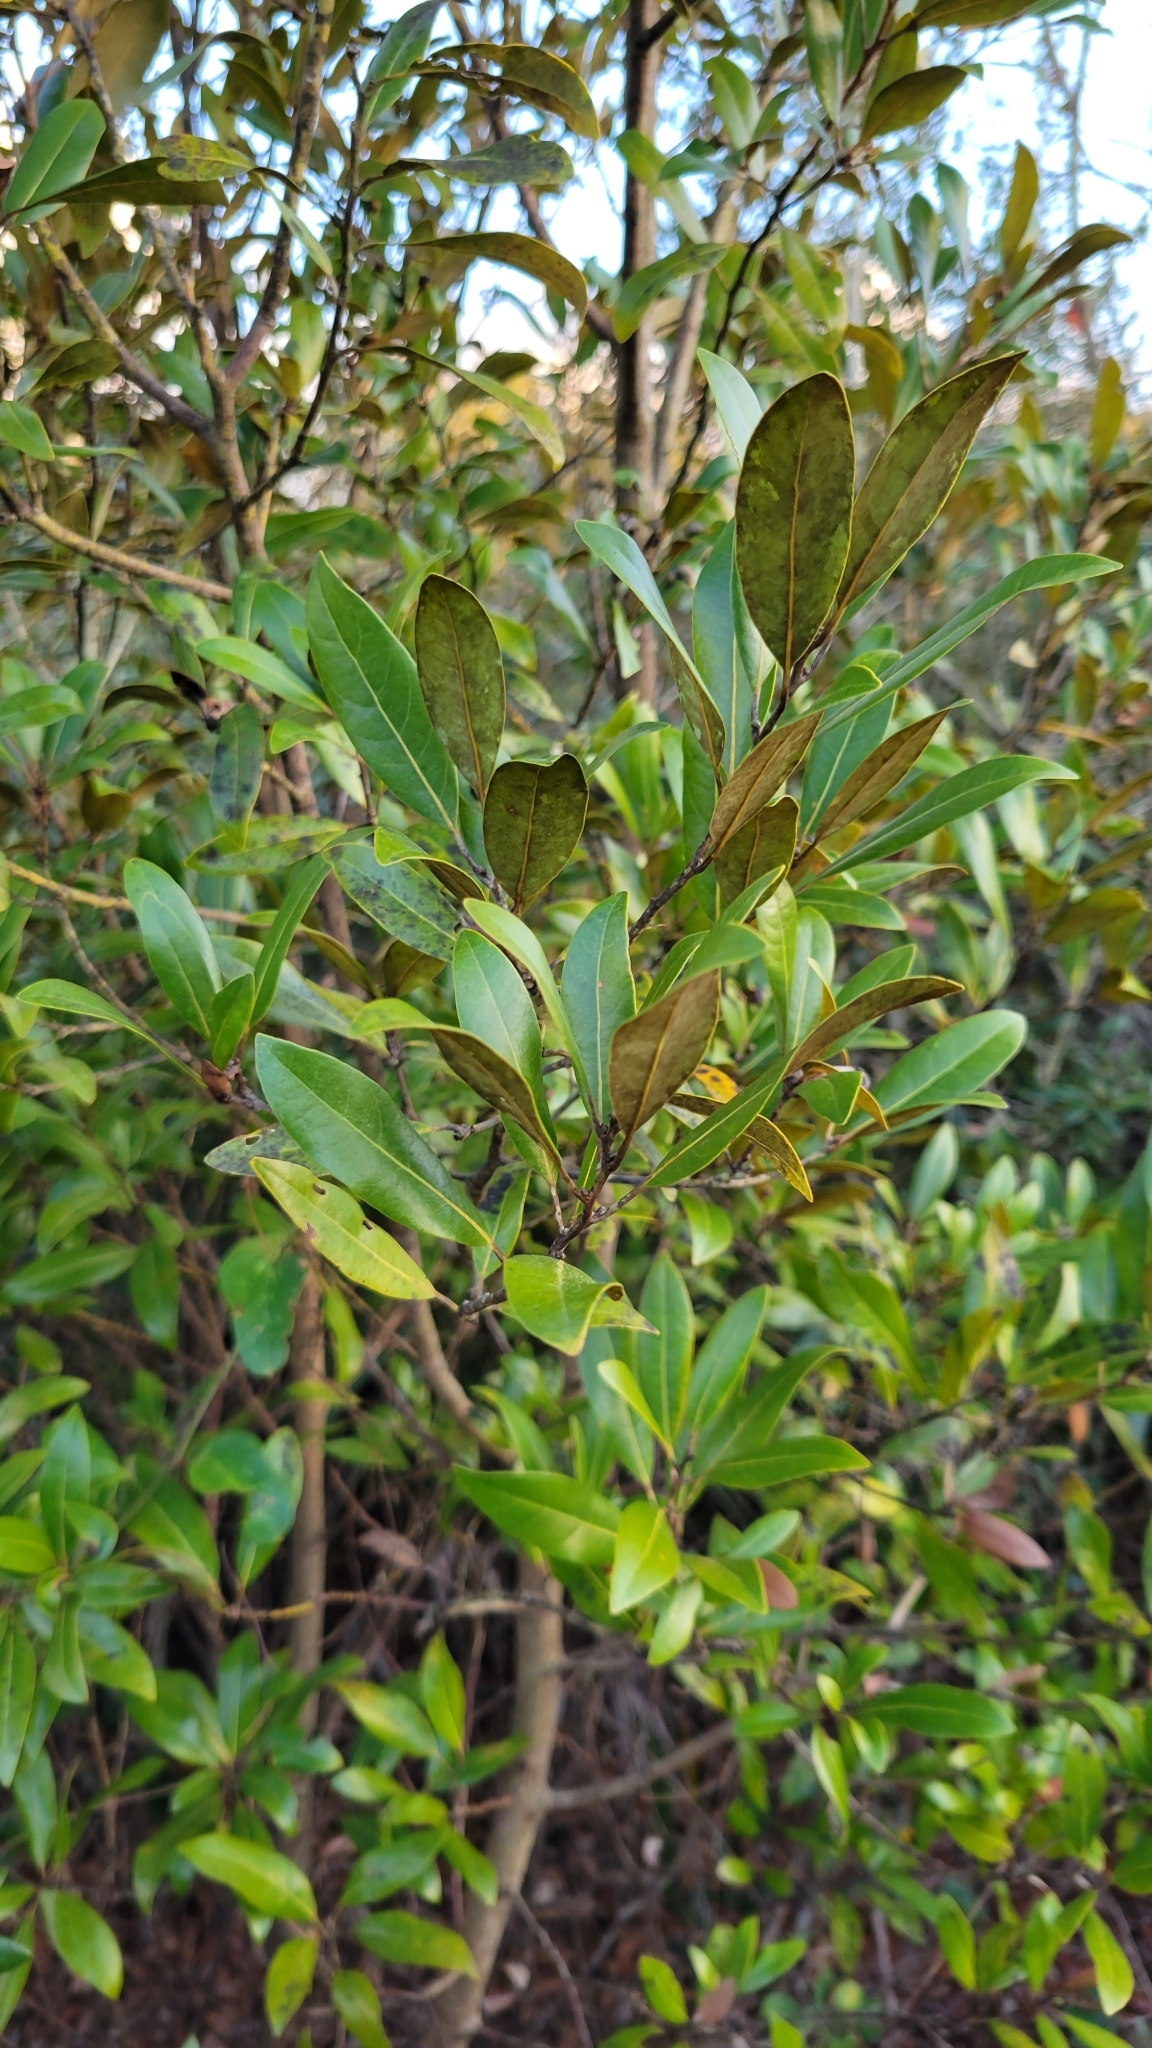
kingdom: Plantae
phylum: Tracheophyta
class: Magnoliopsida
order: Laurales
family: Lauraceae
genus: Persea
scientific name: Persea humilis
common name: Silkbay
